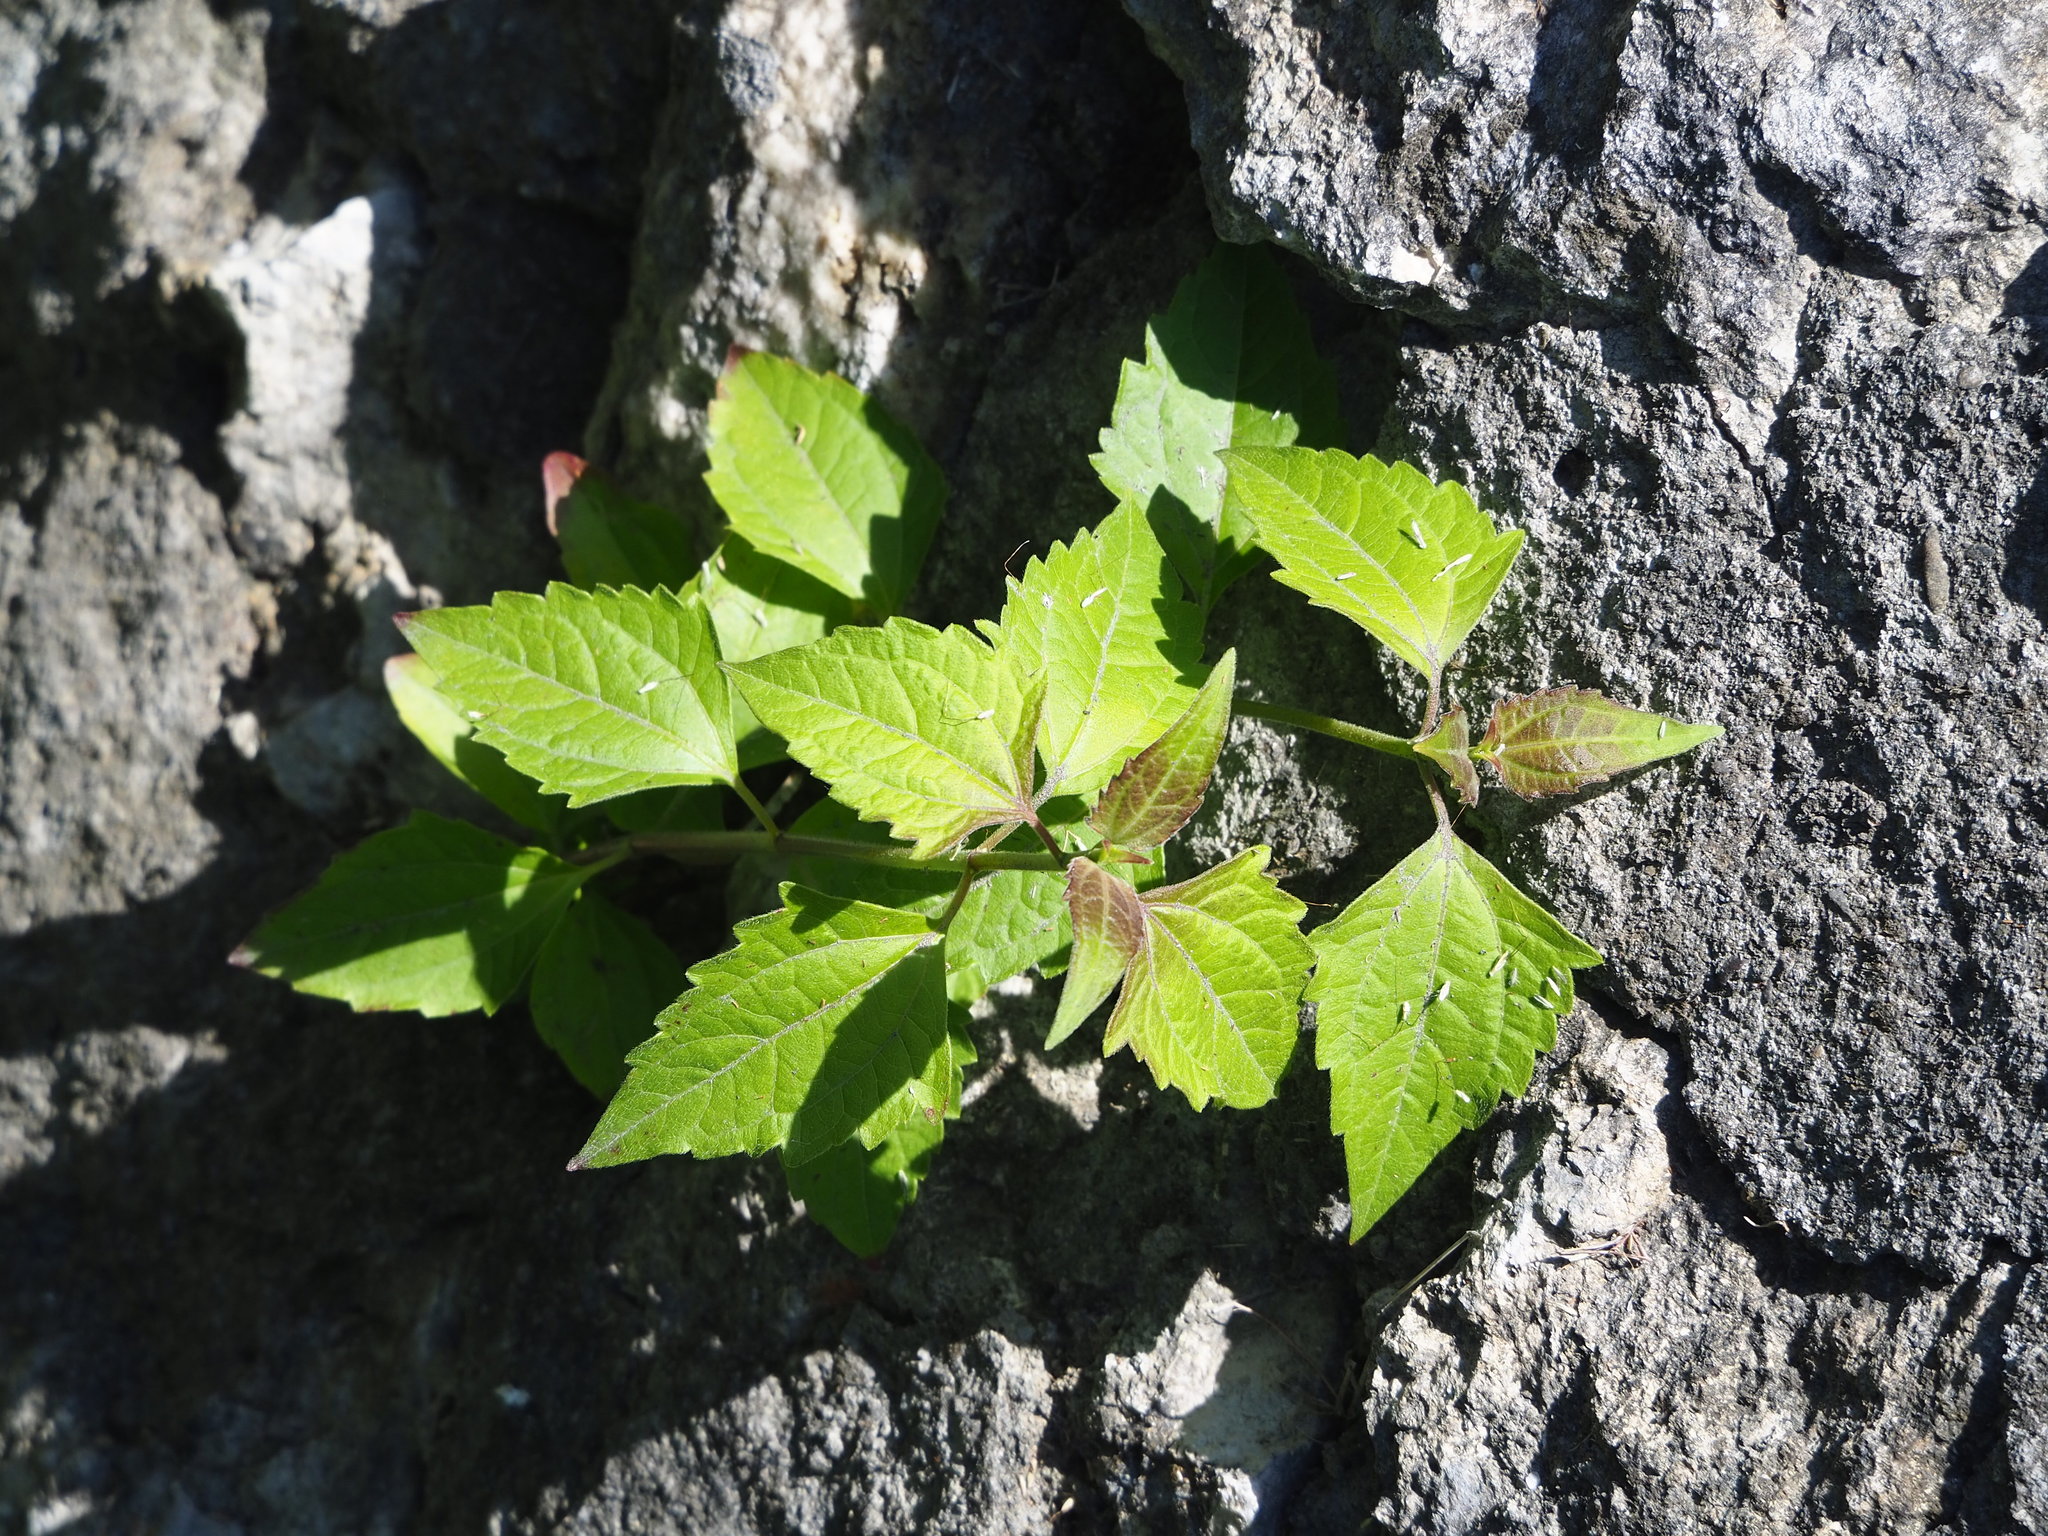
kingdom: Plantae
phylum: Tracheophyta
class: Magnoliopsida
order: Asterales
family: Asteraceae
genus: Chromolaena
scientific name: Chromolaena odorata
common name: Siamweed
